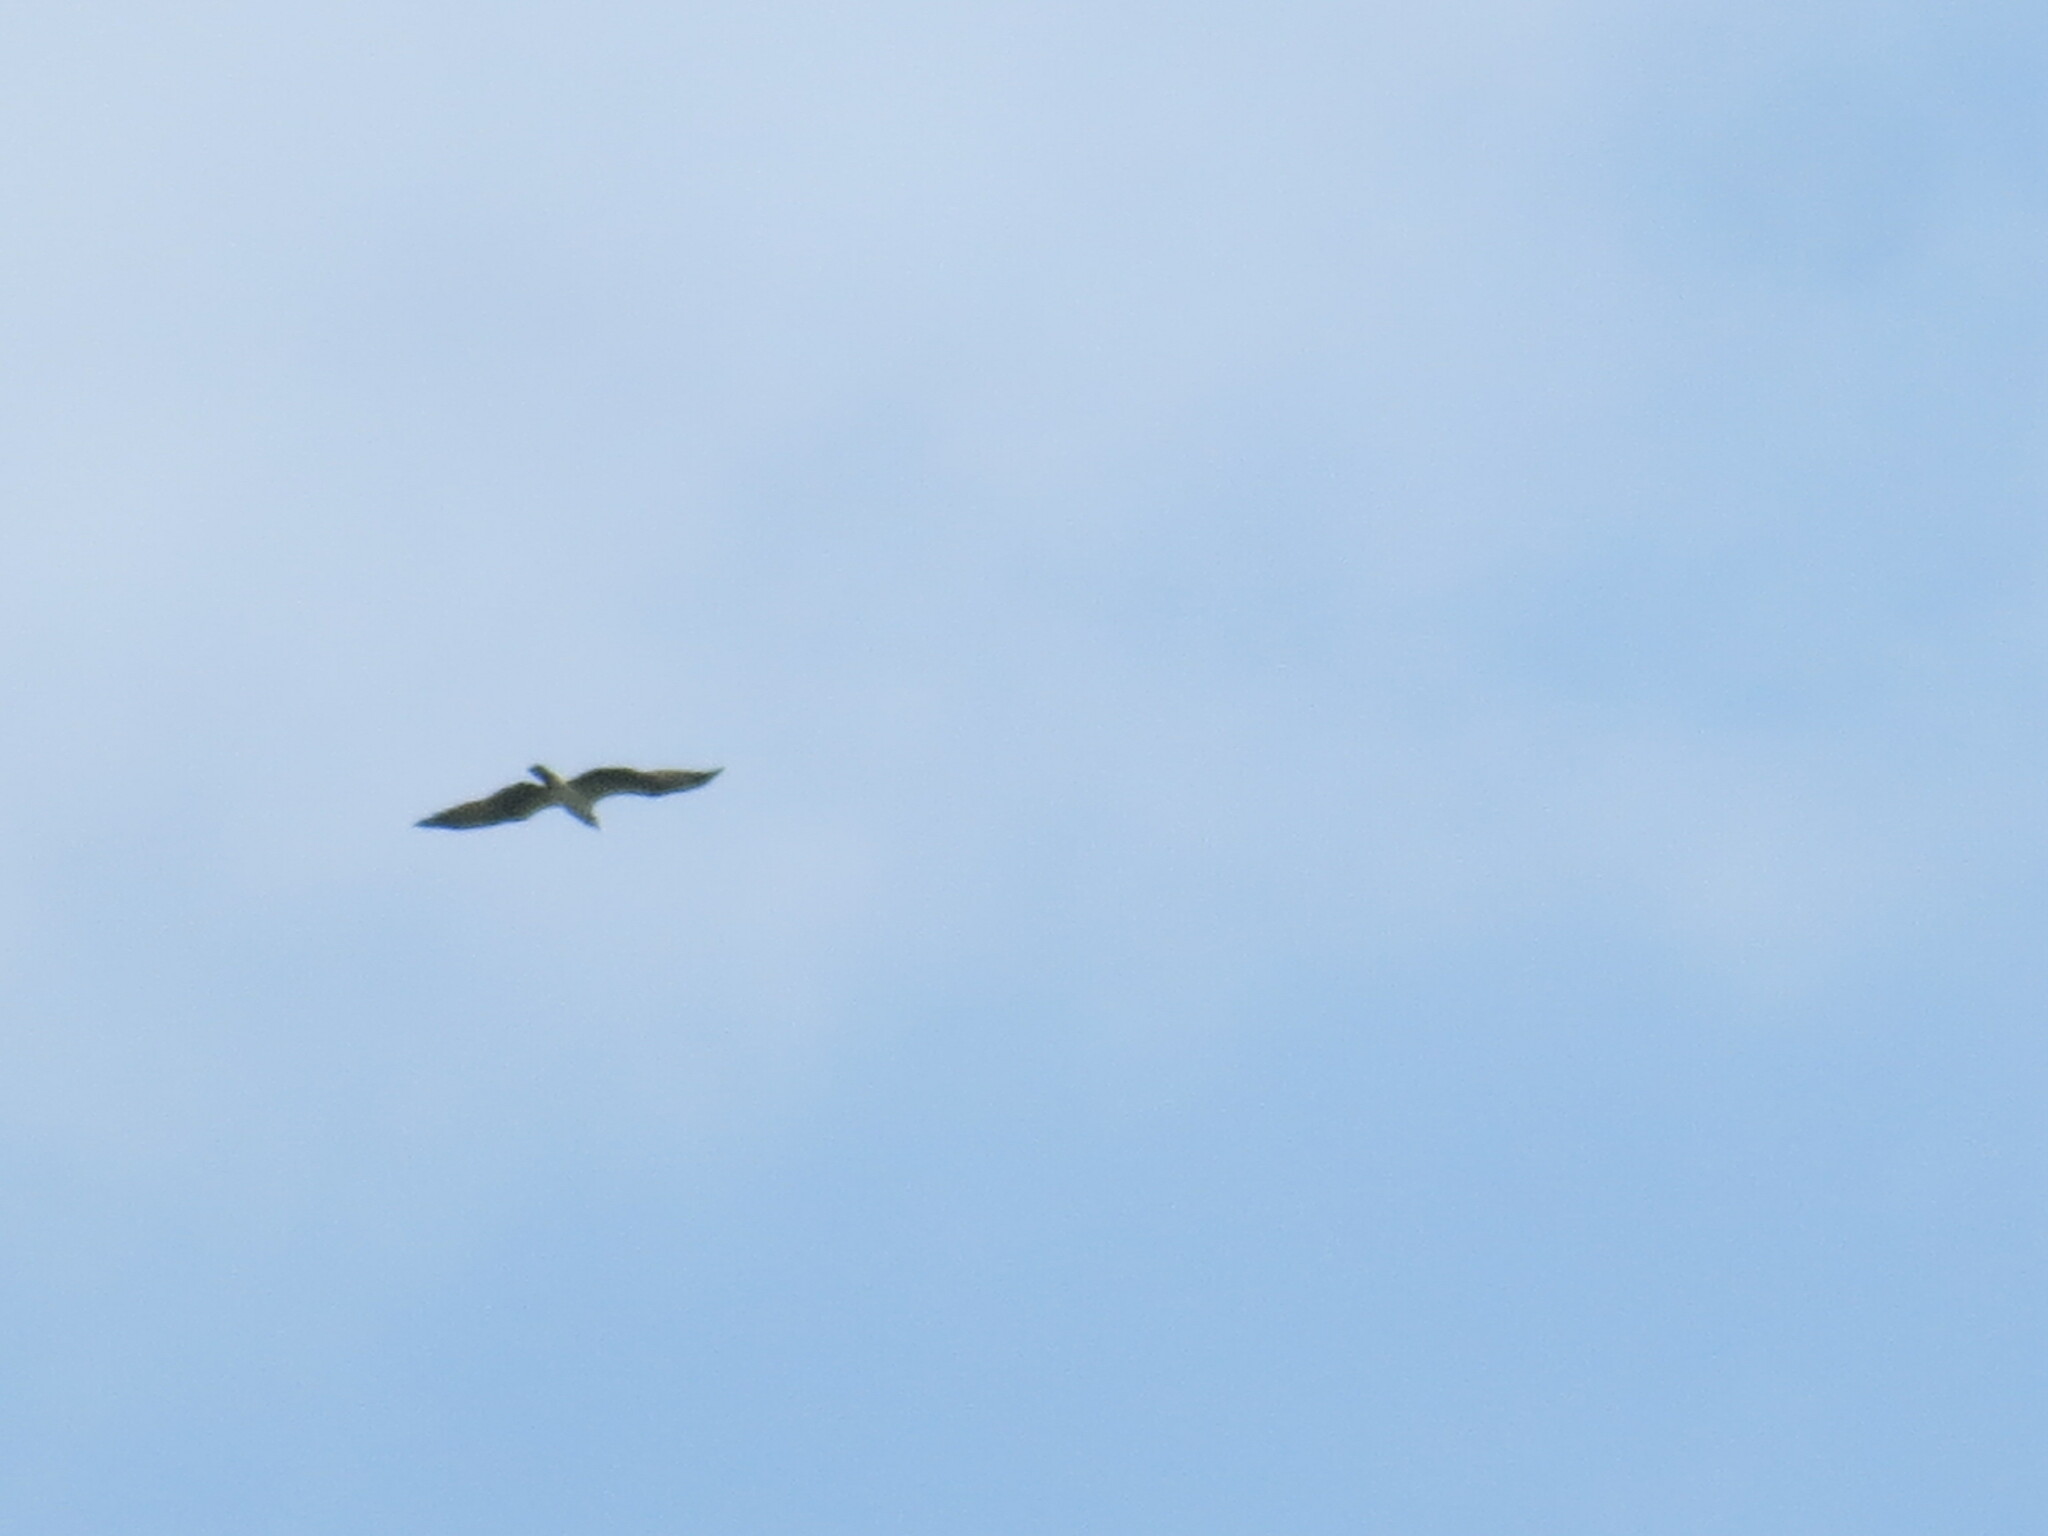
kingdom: Animalia
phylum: Chordata
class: Aves
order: Accipitriformes
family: Pandionidae
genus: Pandion
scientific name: Pandion haliaetus
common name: Osprey
